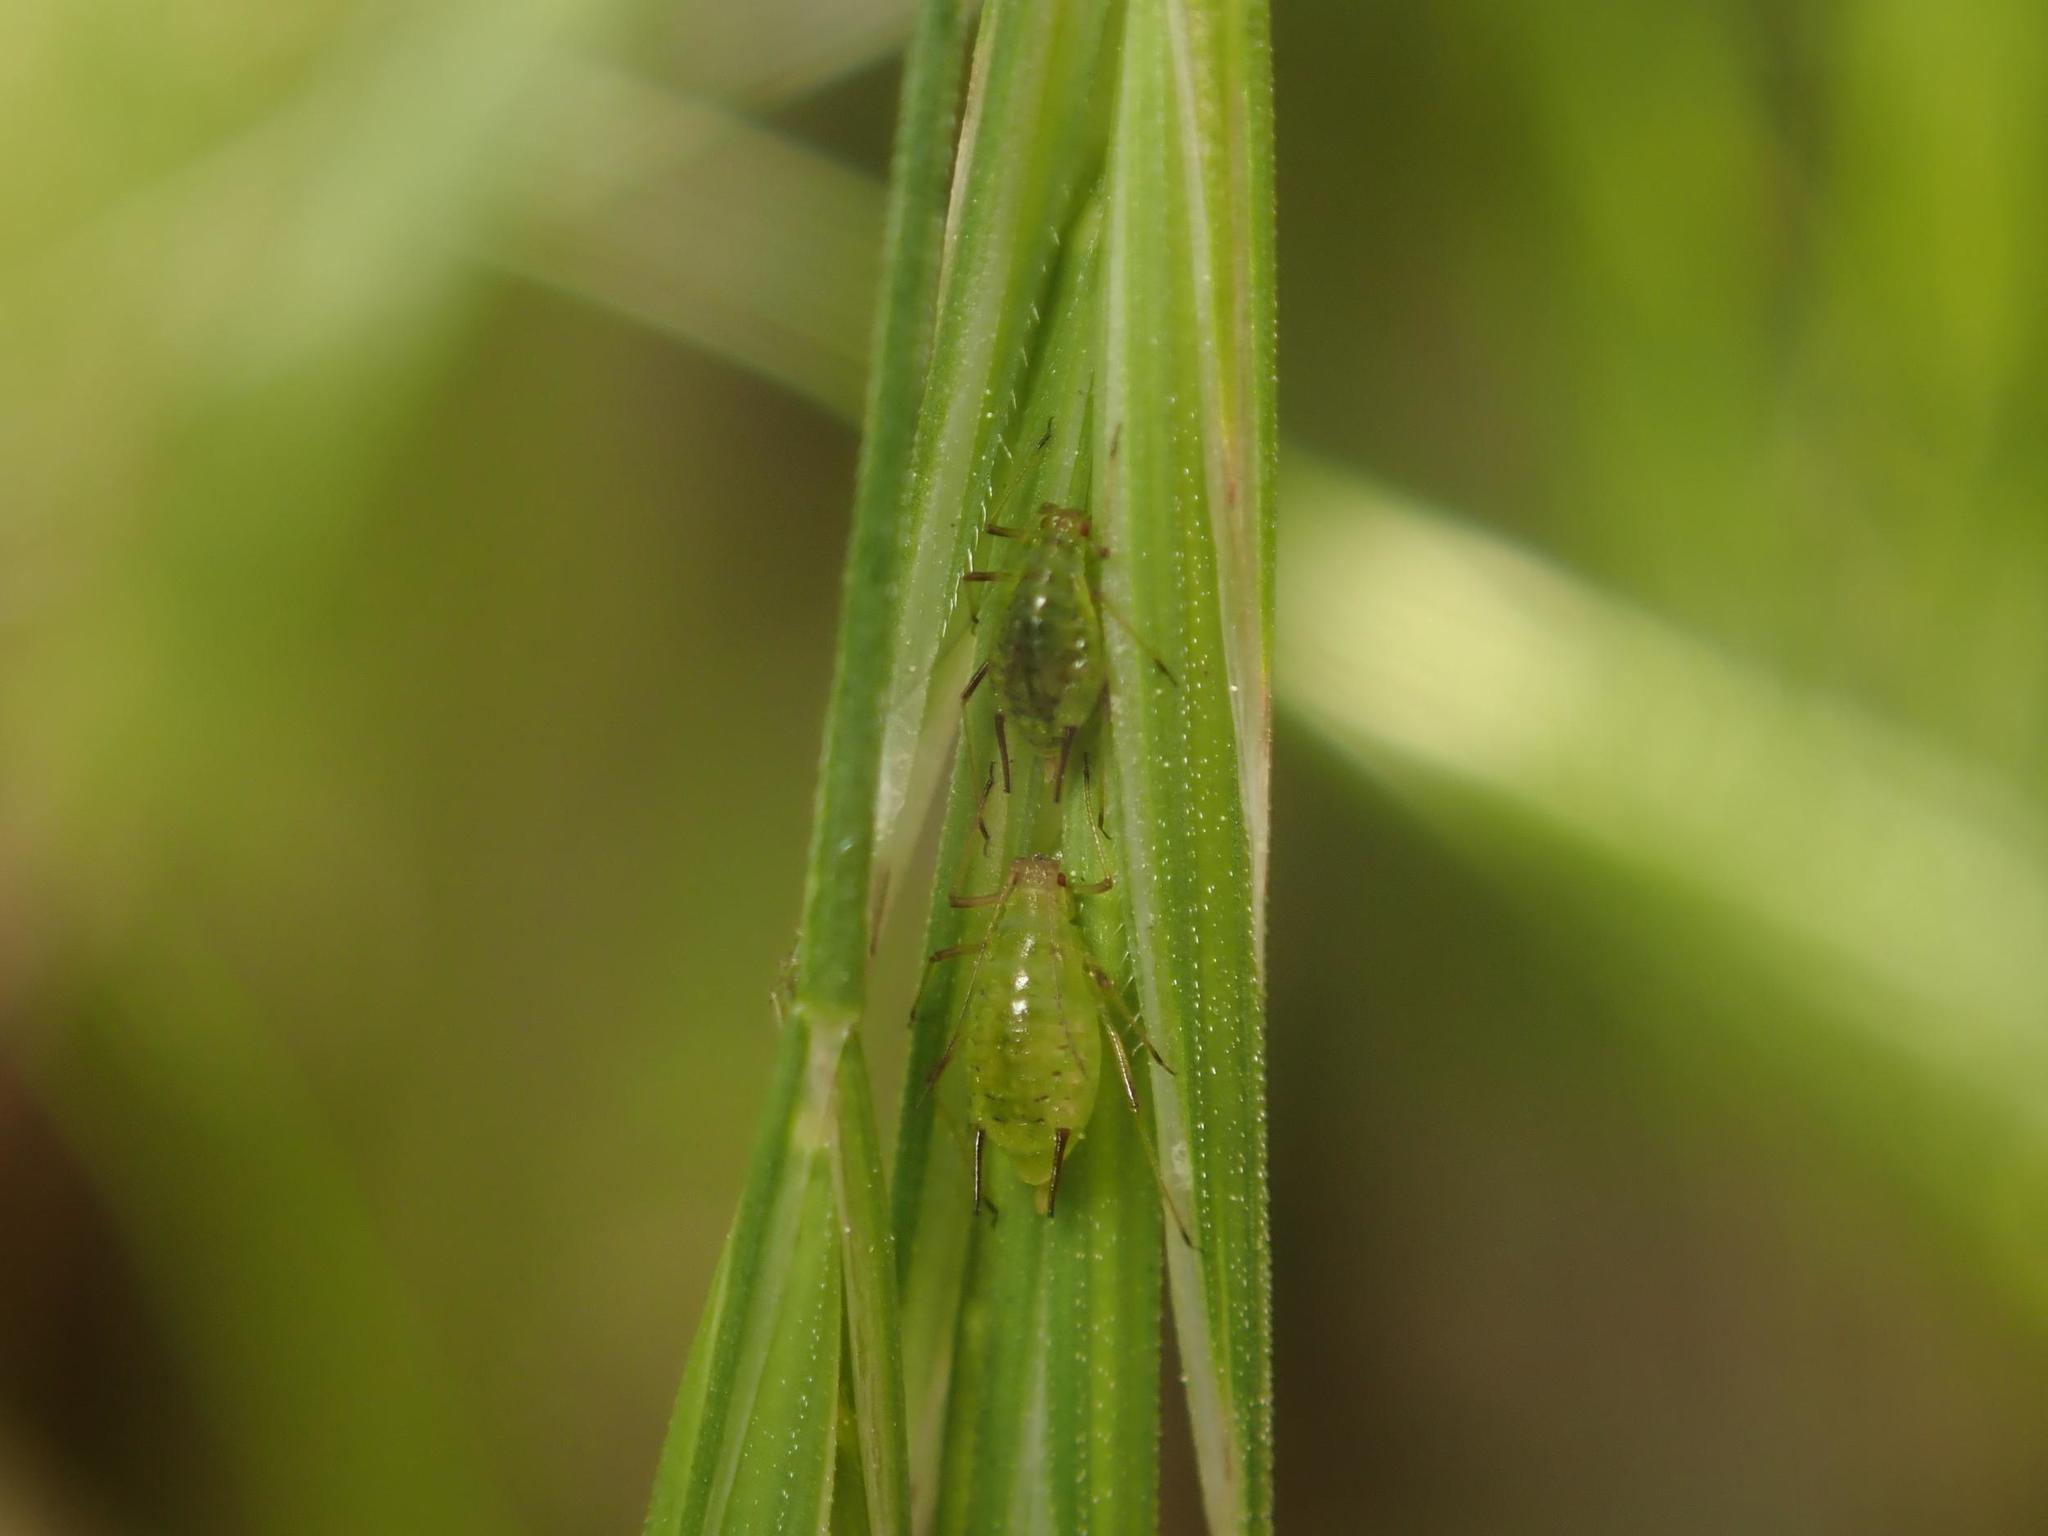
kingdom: Animalia
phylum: Arthropoda
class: Insecta
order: Hemiptera
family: Aphididae
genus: Sitobion
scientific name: Sitobion fragariae
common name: Blackberry cereal aphid
